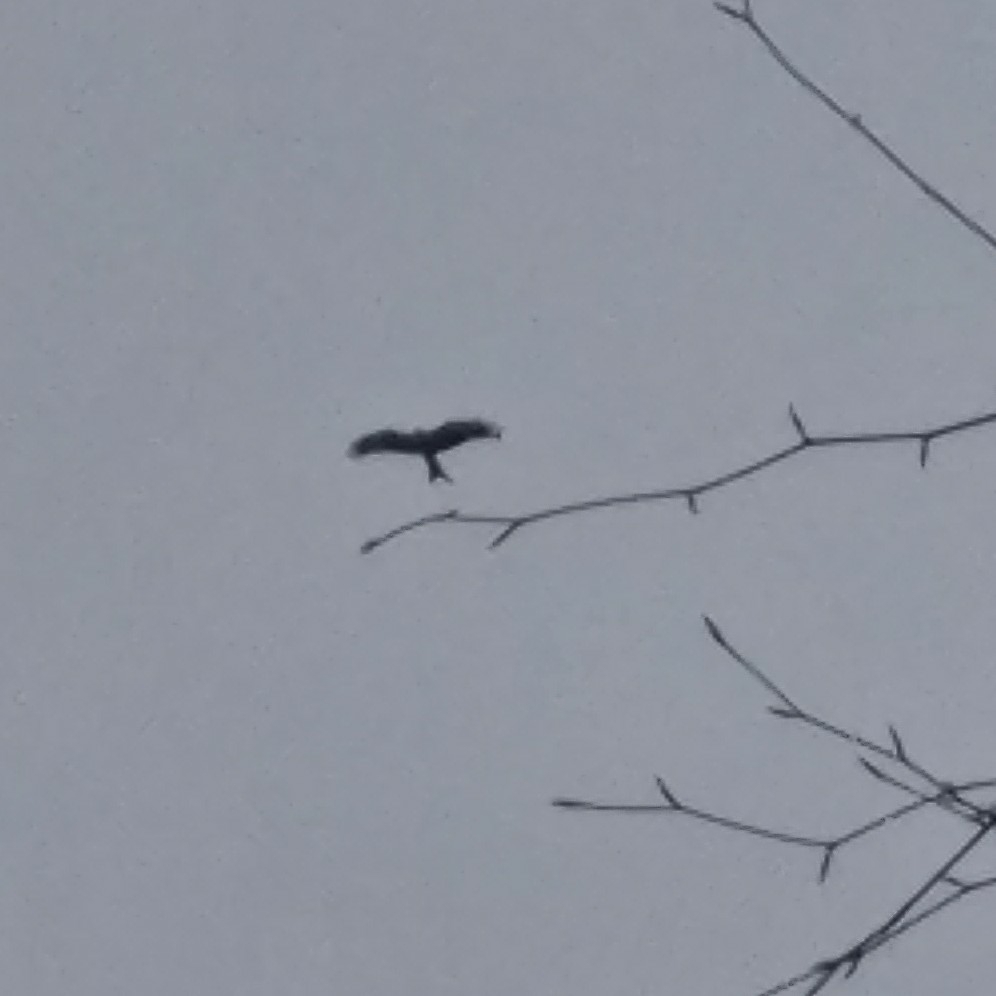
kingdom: Animalia
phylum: Chordata
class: Aves
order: Accipitriformes
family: Accipitridae
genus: Milvus
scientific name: Milvus milvus
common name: Red kite
